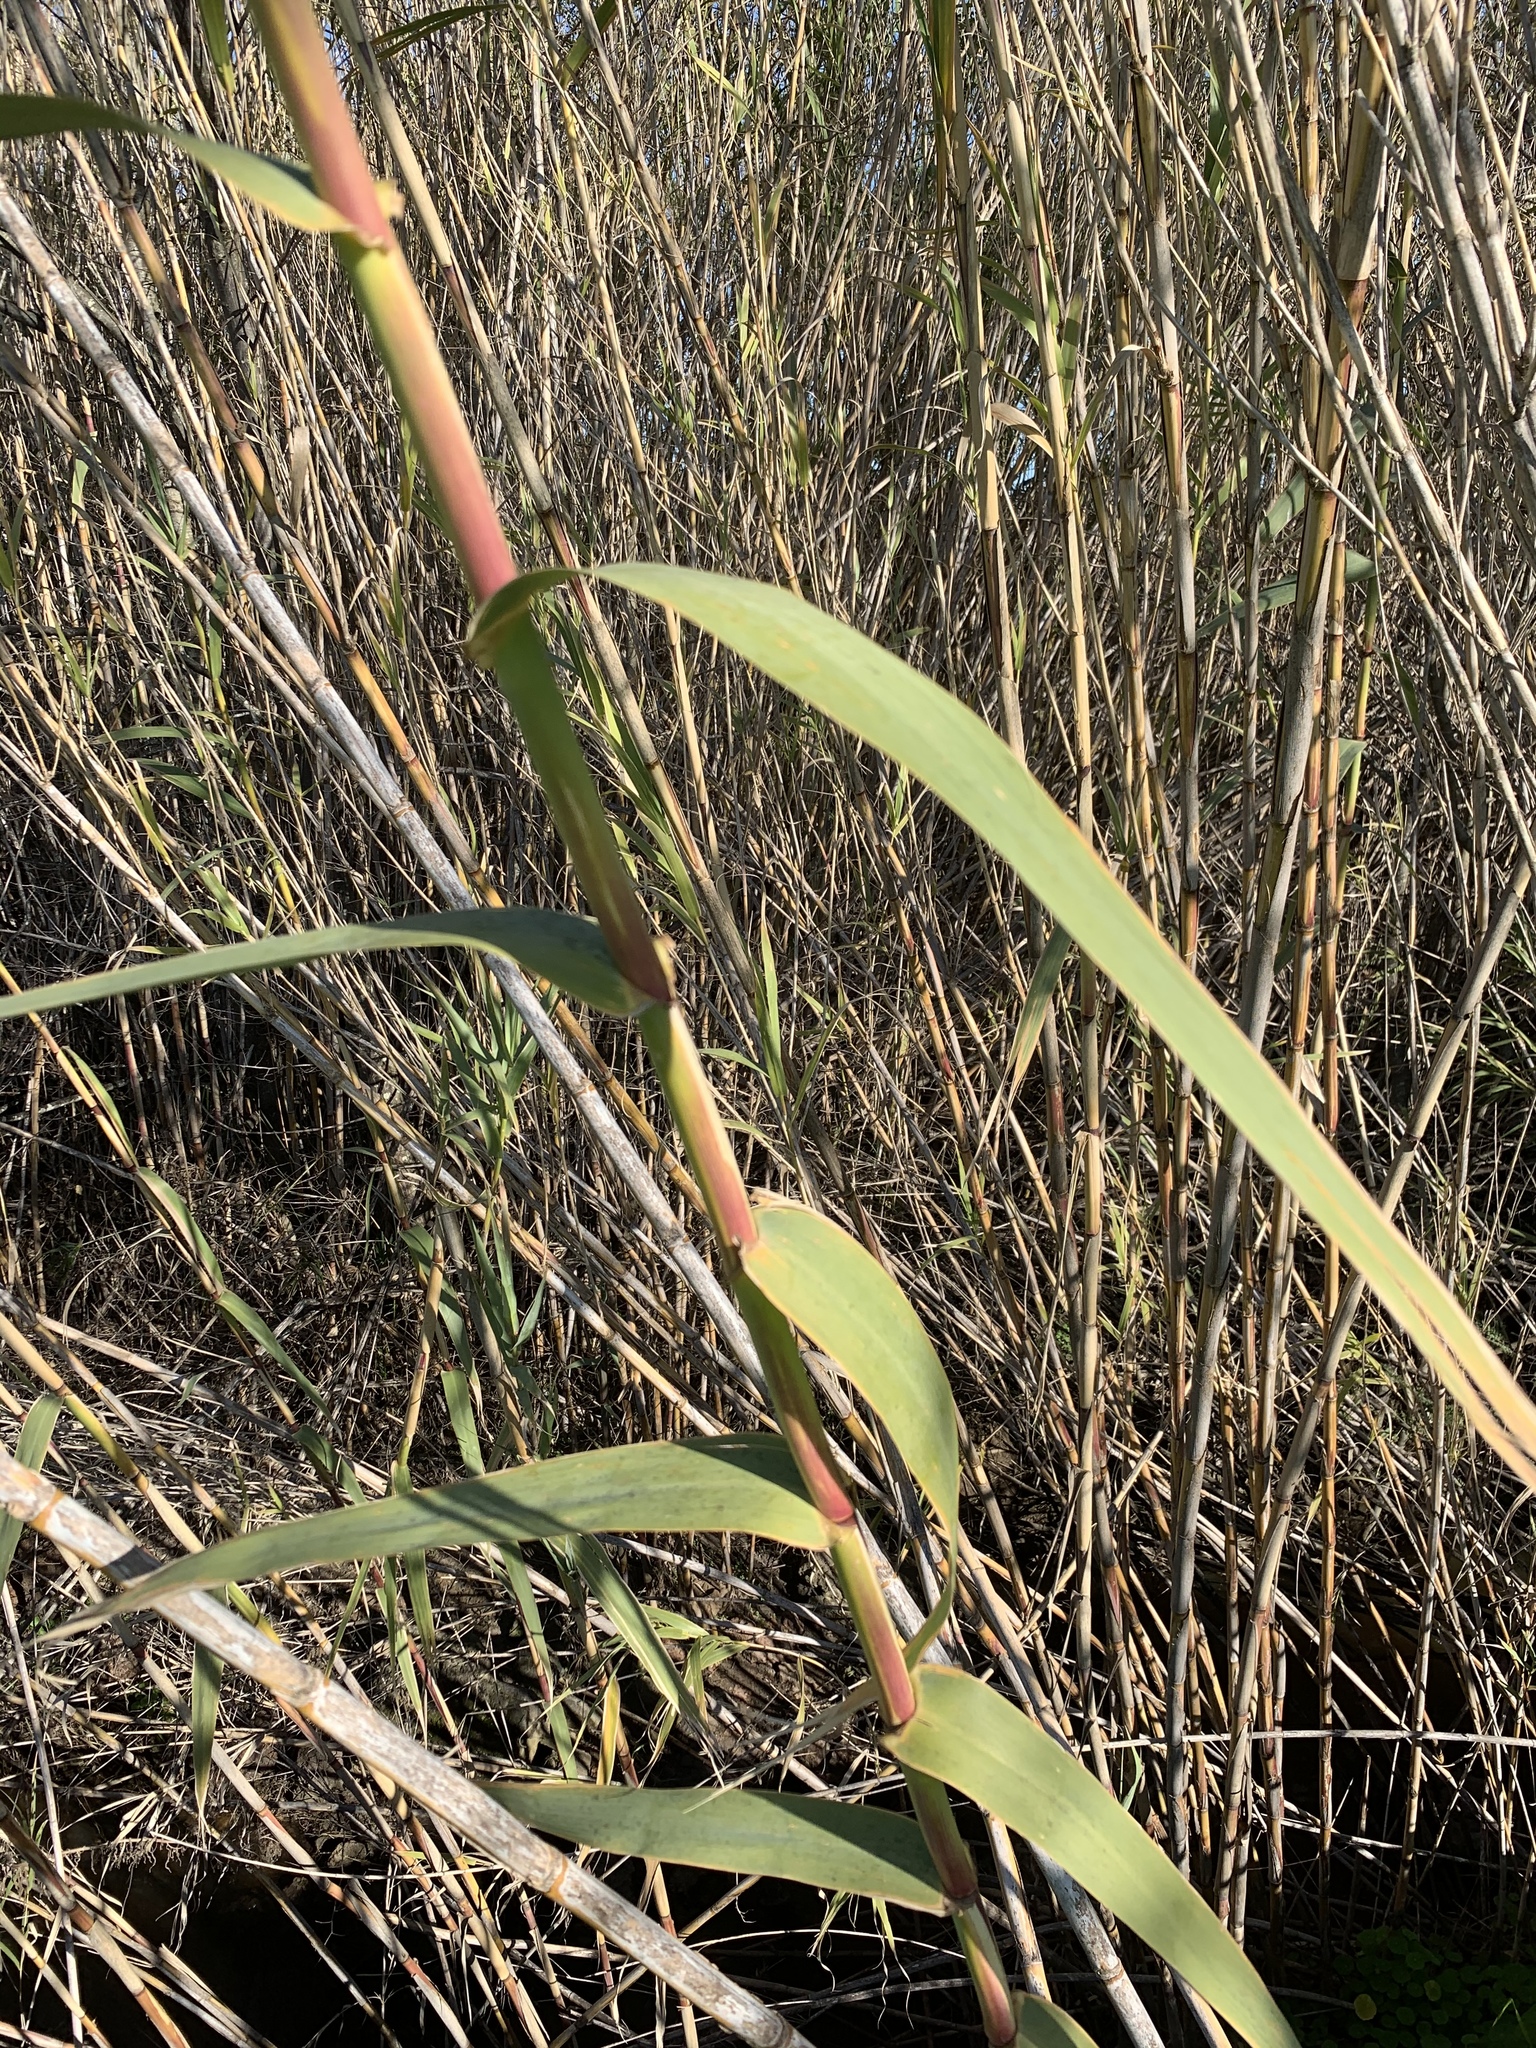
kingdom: Plantae
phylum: Tracheophyta
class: Liliopsida
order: Poales
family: Poaceae
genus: Arundo
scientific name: Arundo donax
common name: Giant reed
